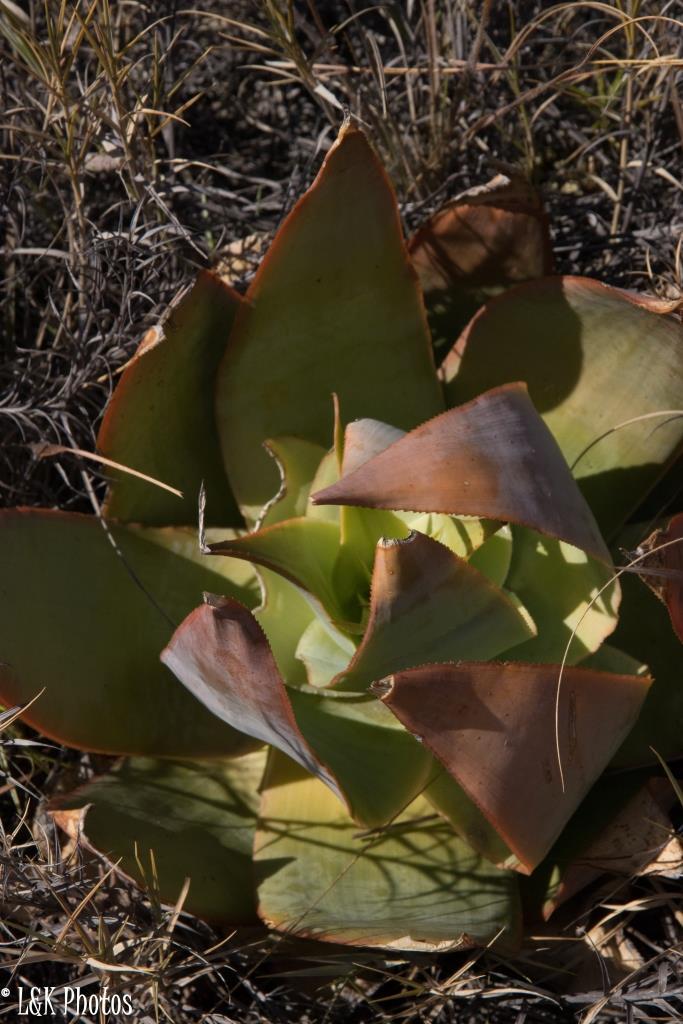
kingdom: Plantae
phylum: Tracheophyta
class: Liliopsida
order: Asparagales
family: Asphodelaceae
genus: Aloe
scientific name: Aloe imalotensis
